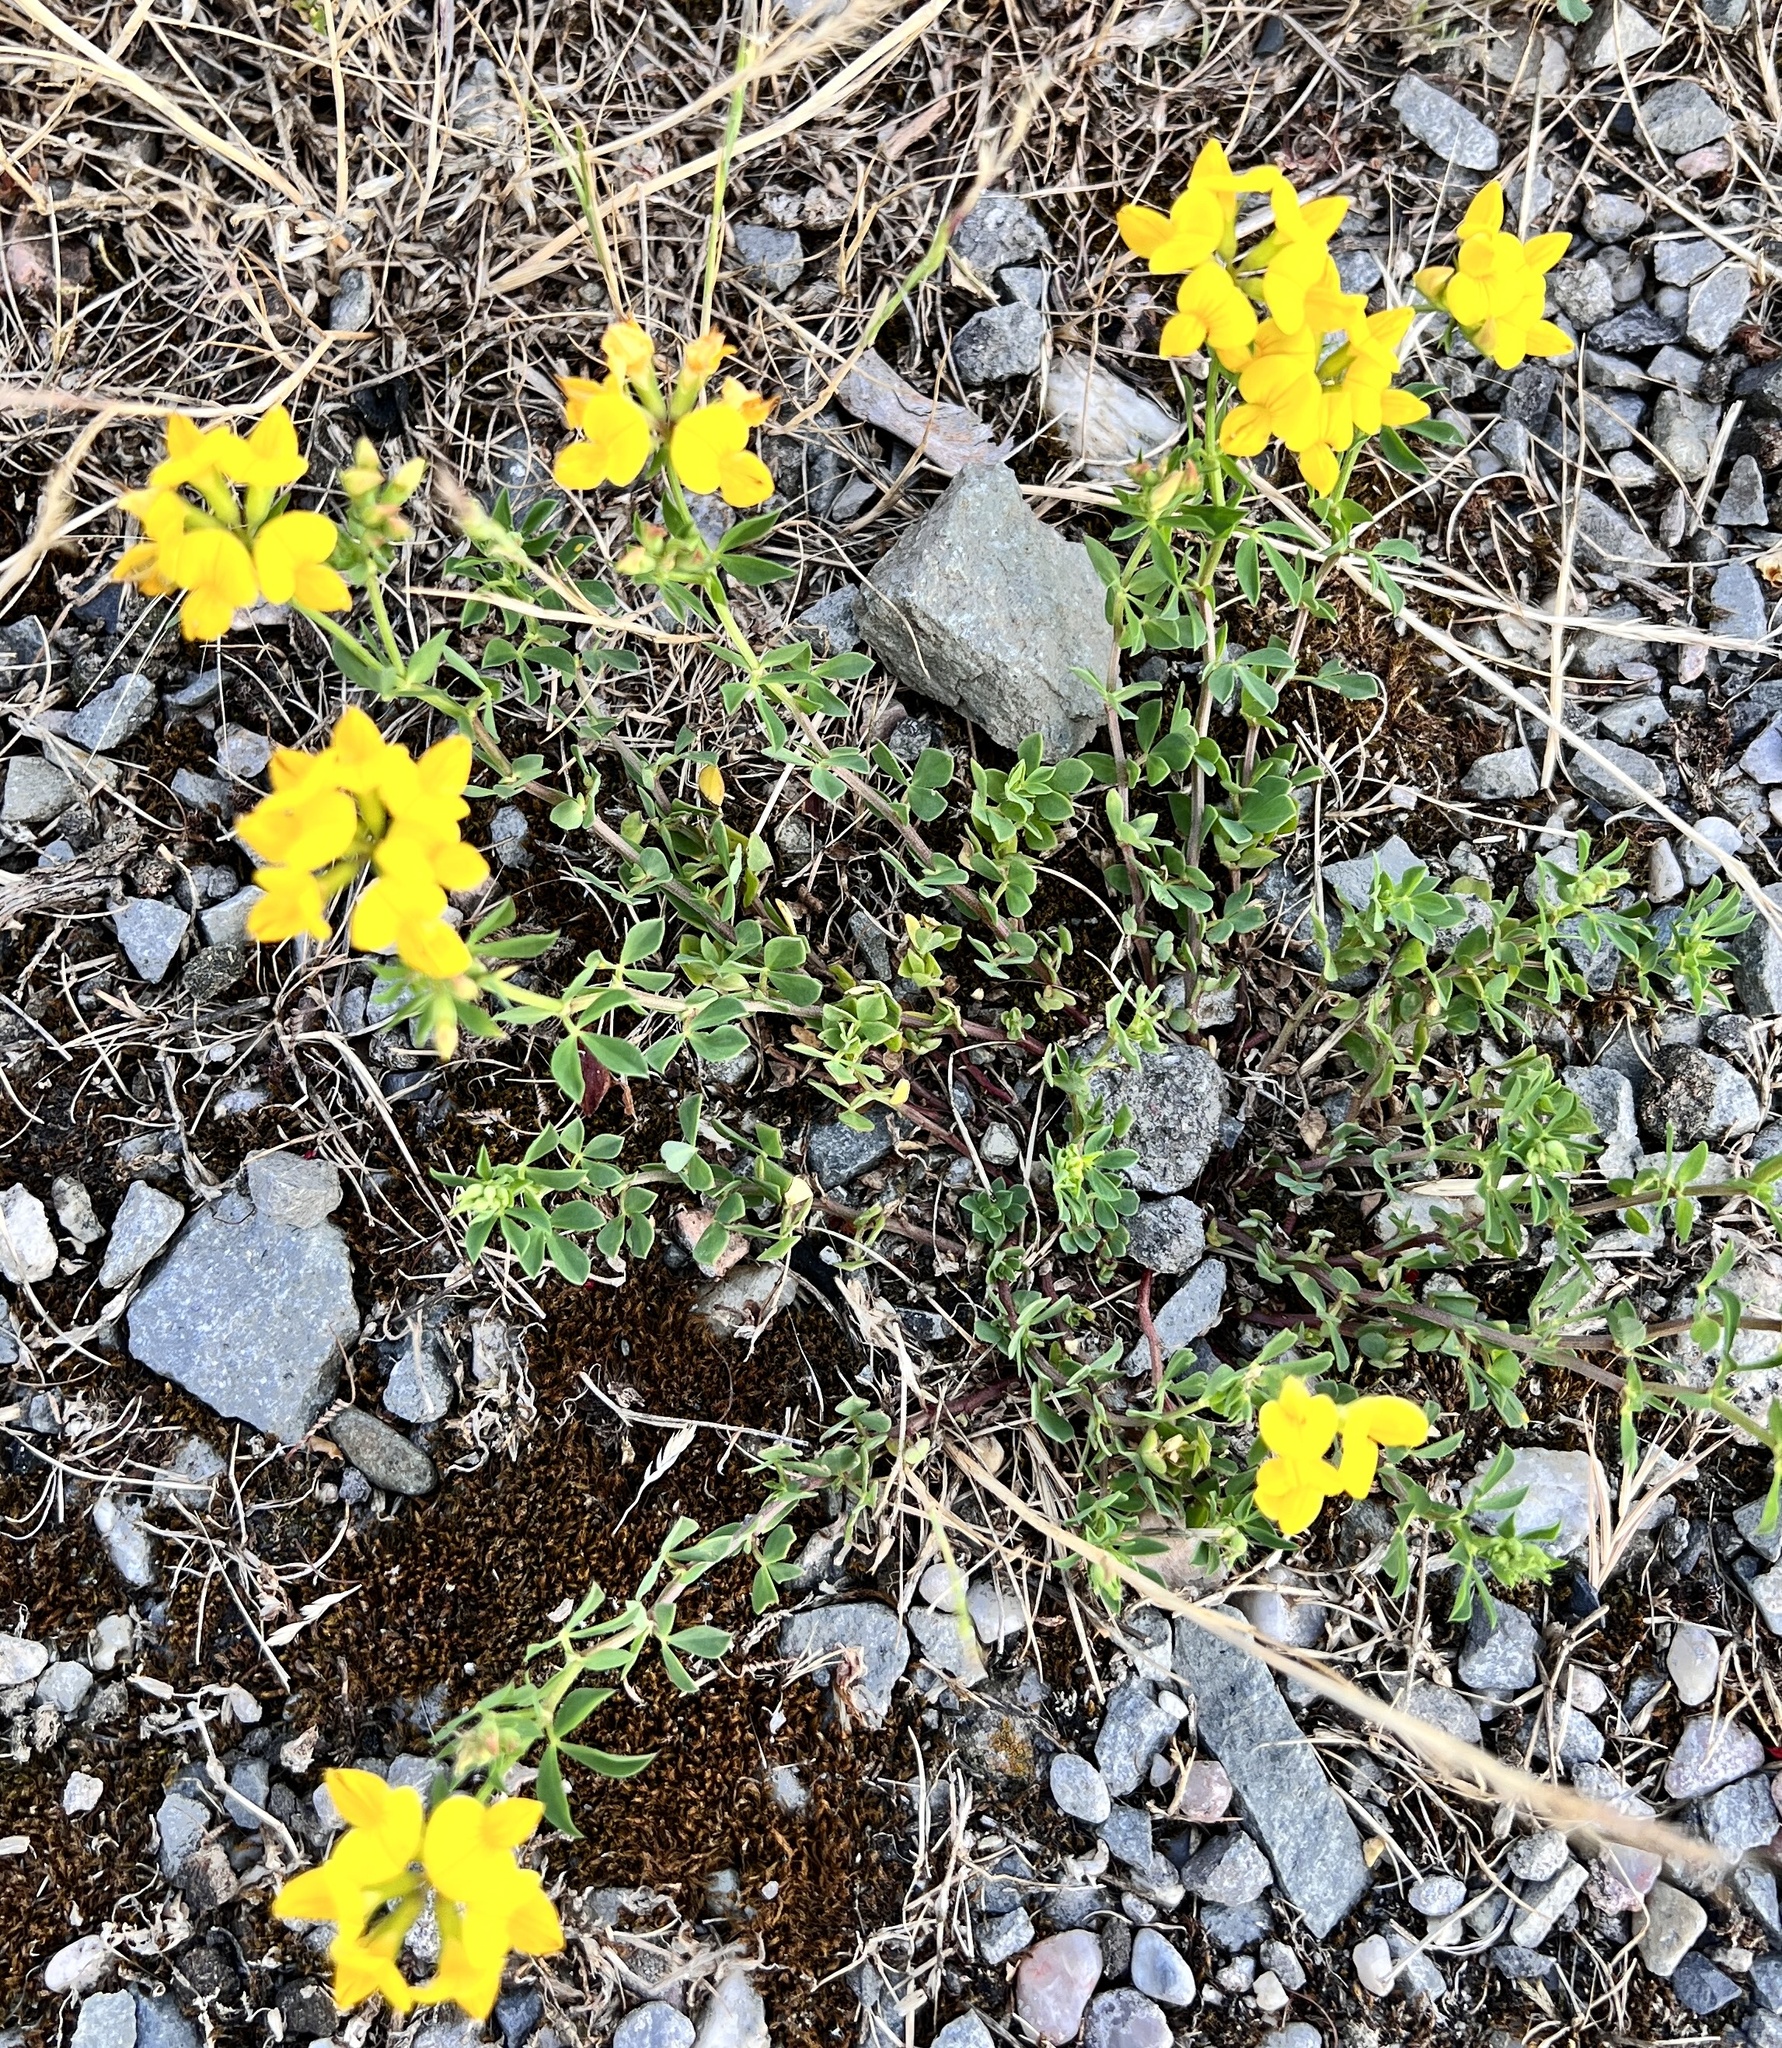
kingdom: Plantae
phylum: Tracheophyta
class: Magnoliopsida
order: Fabales
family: Fabaceae
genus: Lotus
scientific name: Lotus corniculatus
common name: Common bird's-foot-trefoil
